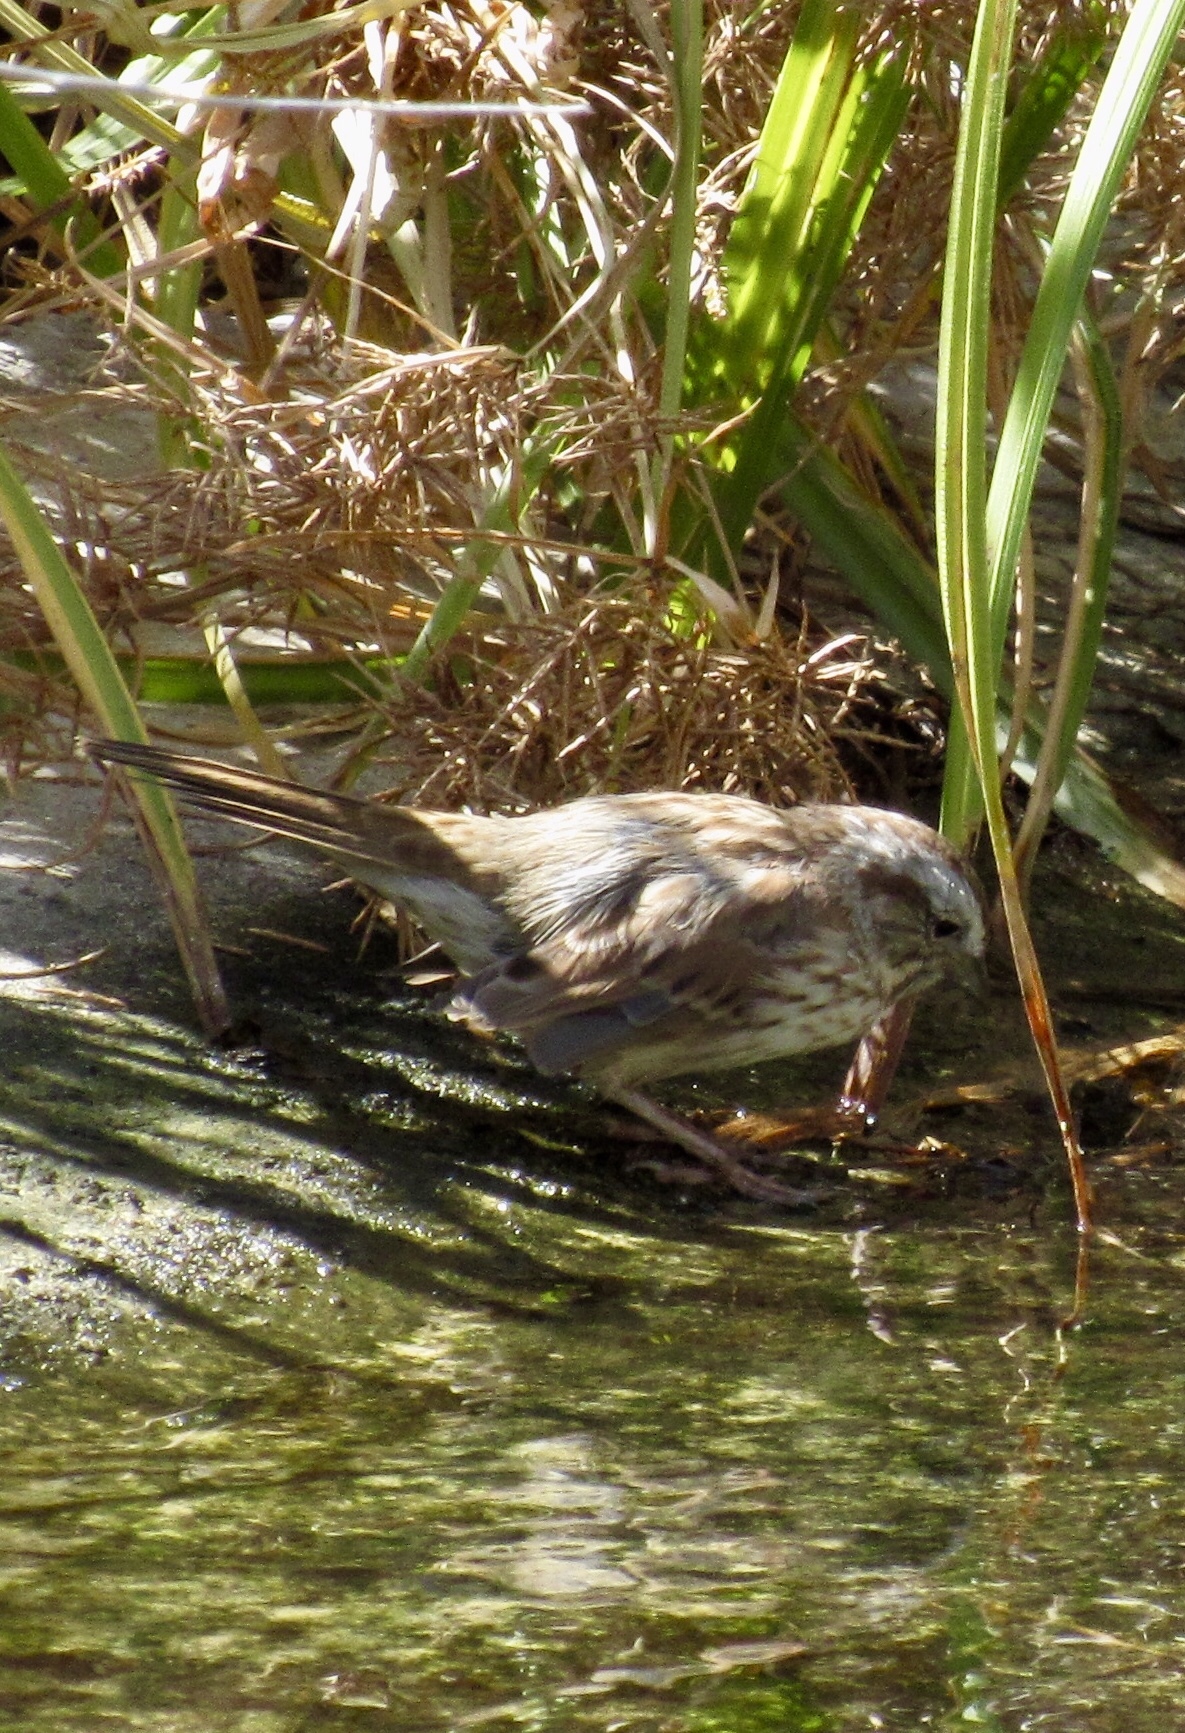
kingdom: Animalia
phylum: Chordata
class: Aves
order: Passeriformes
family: Passerellidae
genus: Melospiza
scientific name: Melospiza melodia
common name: Song sparrow
